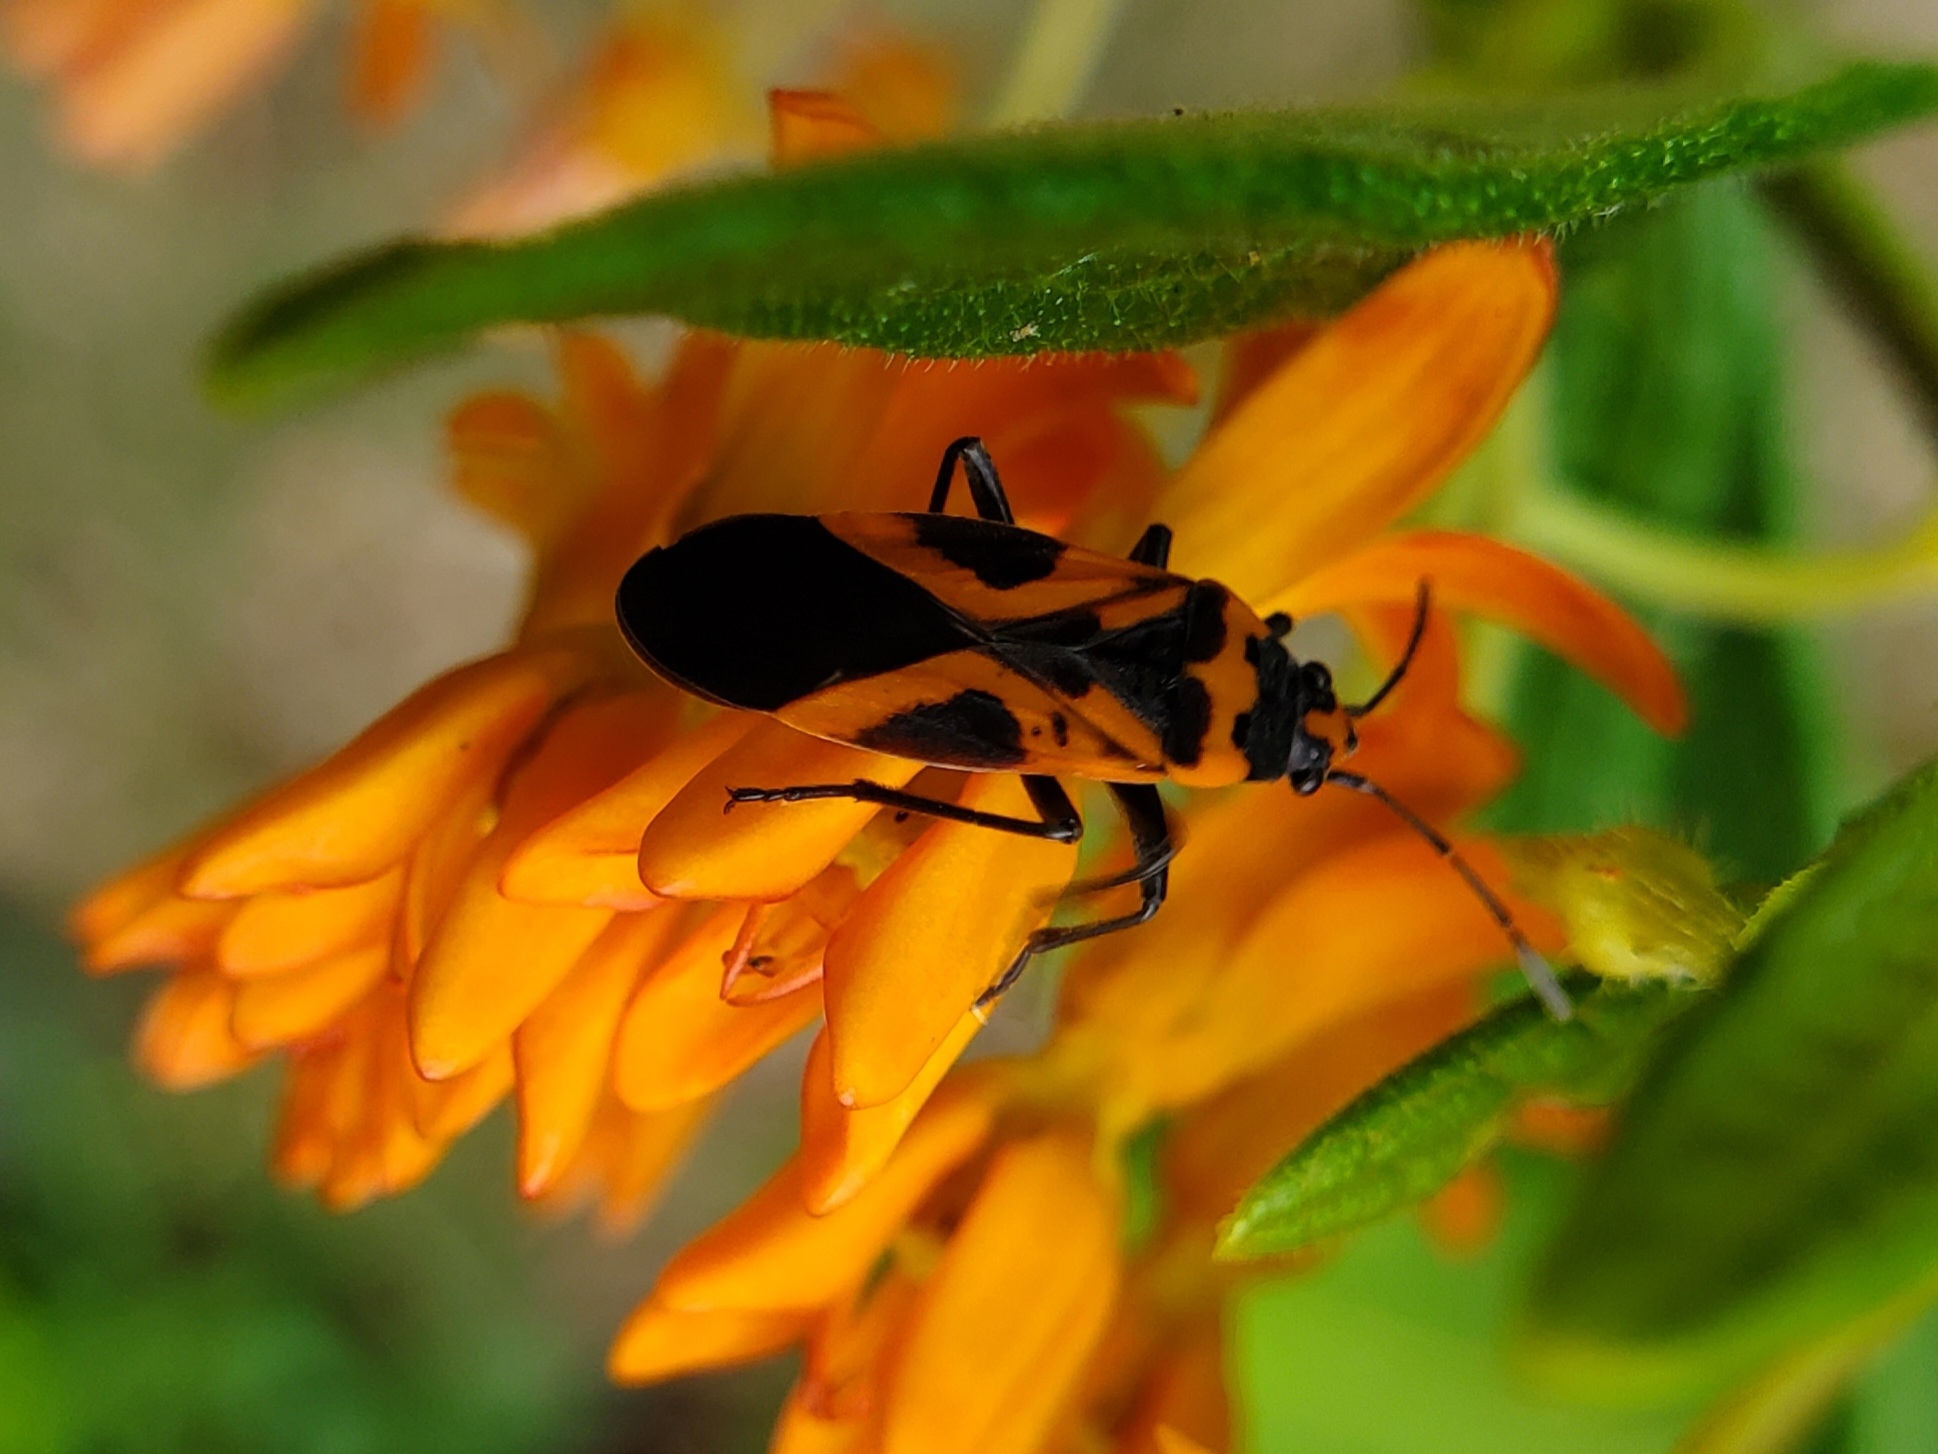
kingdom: Animalia
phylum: Arthropoda
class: Insecta
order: Hemiptera
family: Lygaeidae
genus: Lygaeus
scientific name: Lygaeus turcicus
